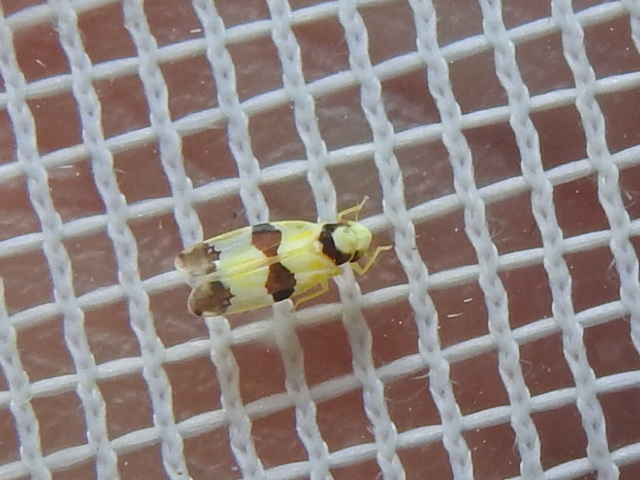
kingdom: Animalia
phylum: Arthropoda
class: Insecta
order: Hemiptera
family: Cicadellidae
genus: Erythroneura
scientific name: Erythroneura calycula
